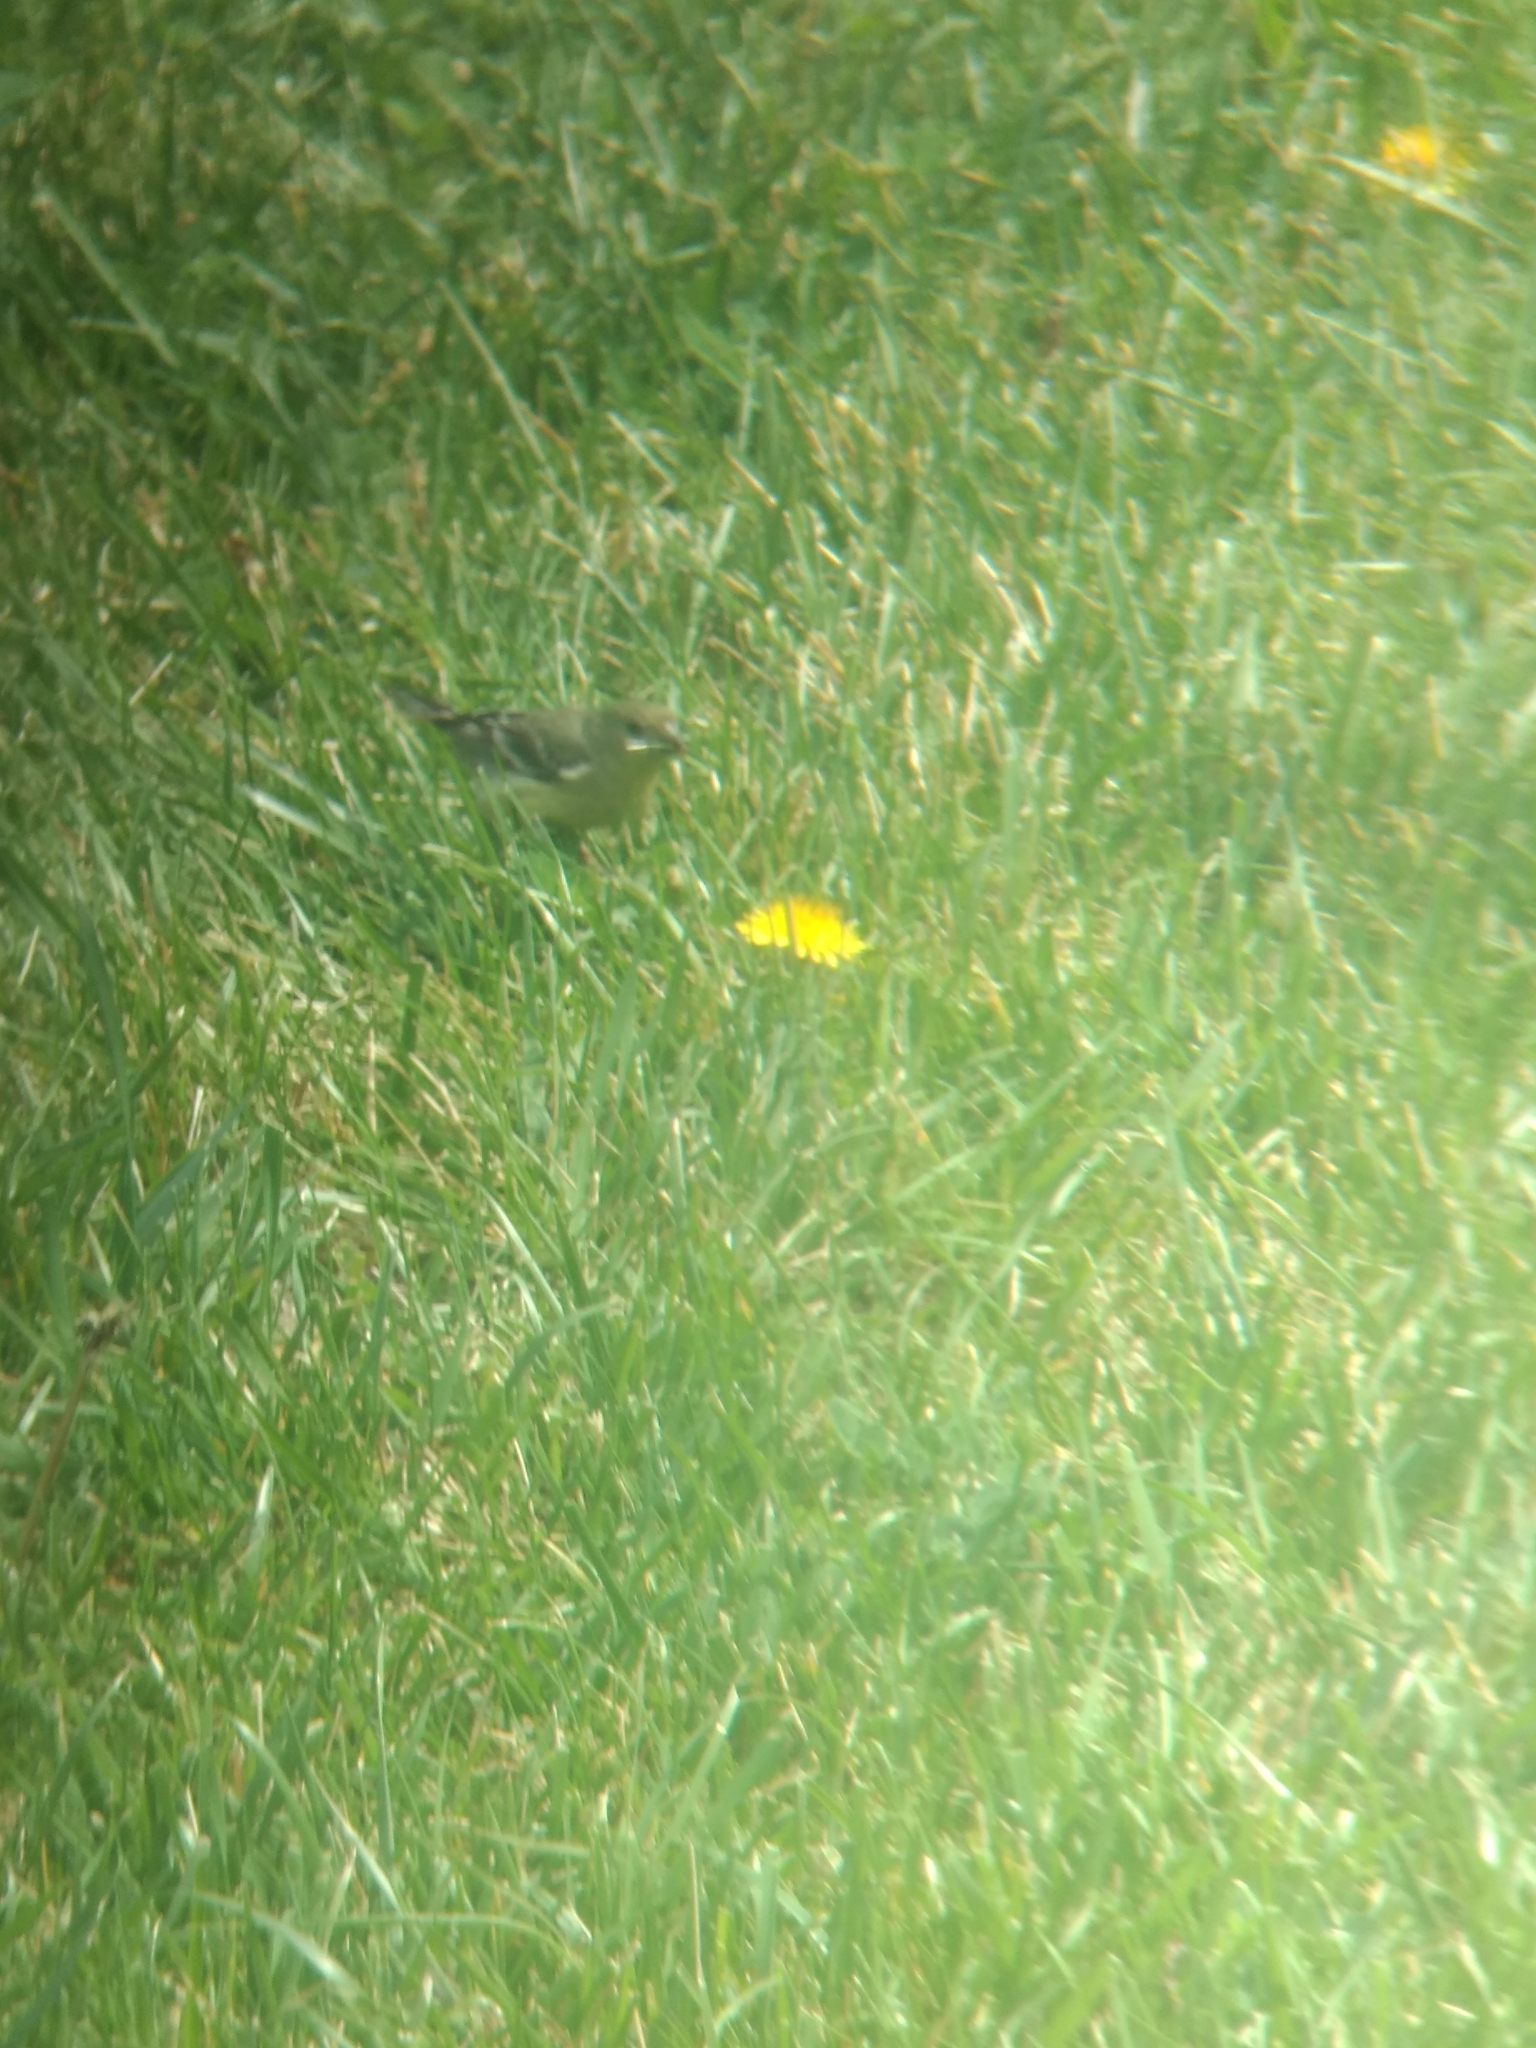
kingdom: Animalia
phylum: Chordata
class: Aves
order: Passeriformes
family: Fringillidae
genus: Spinus
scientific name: Spinus psaltria
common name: Lesser goldfinch
